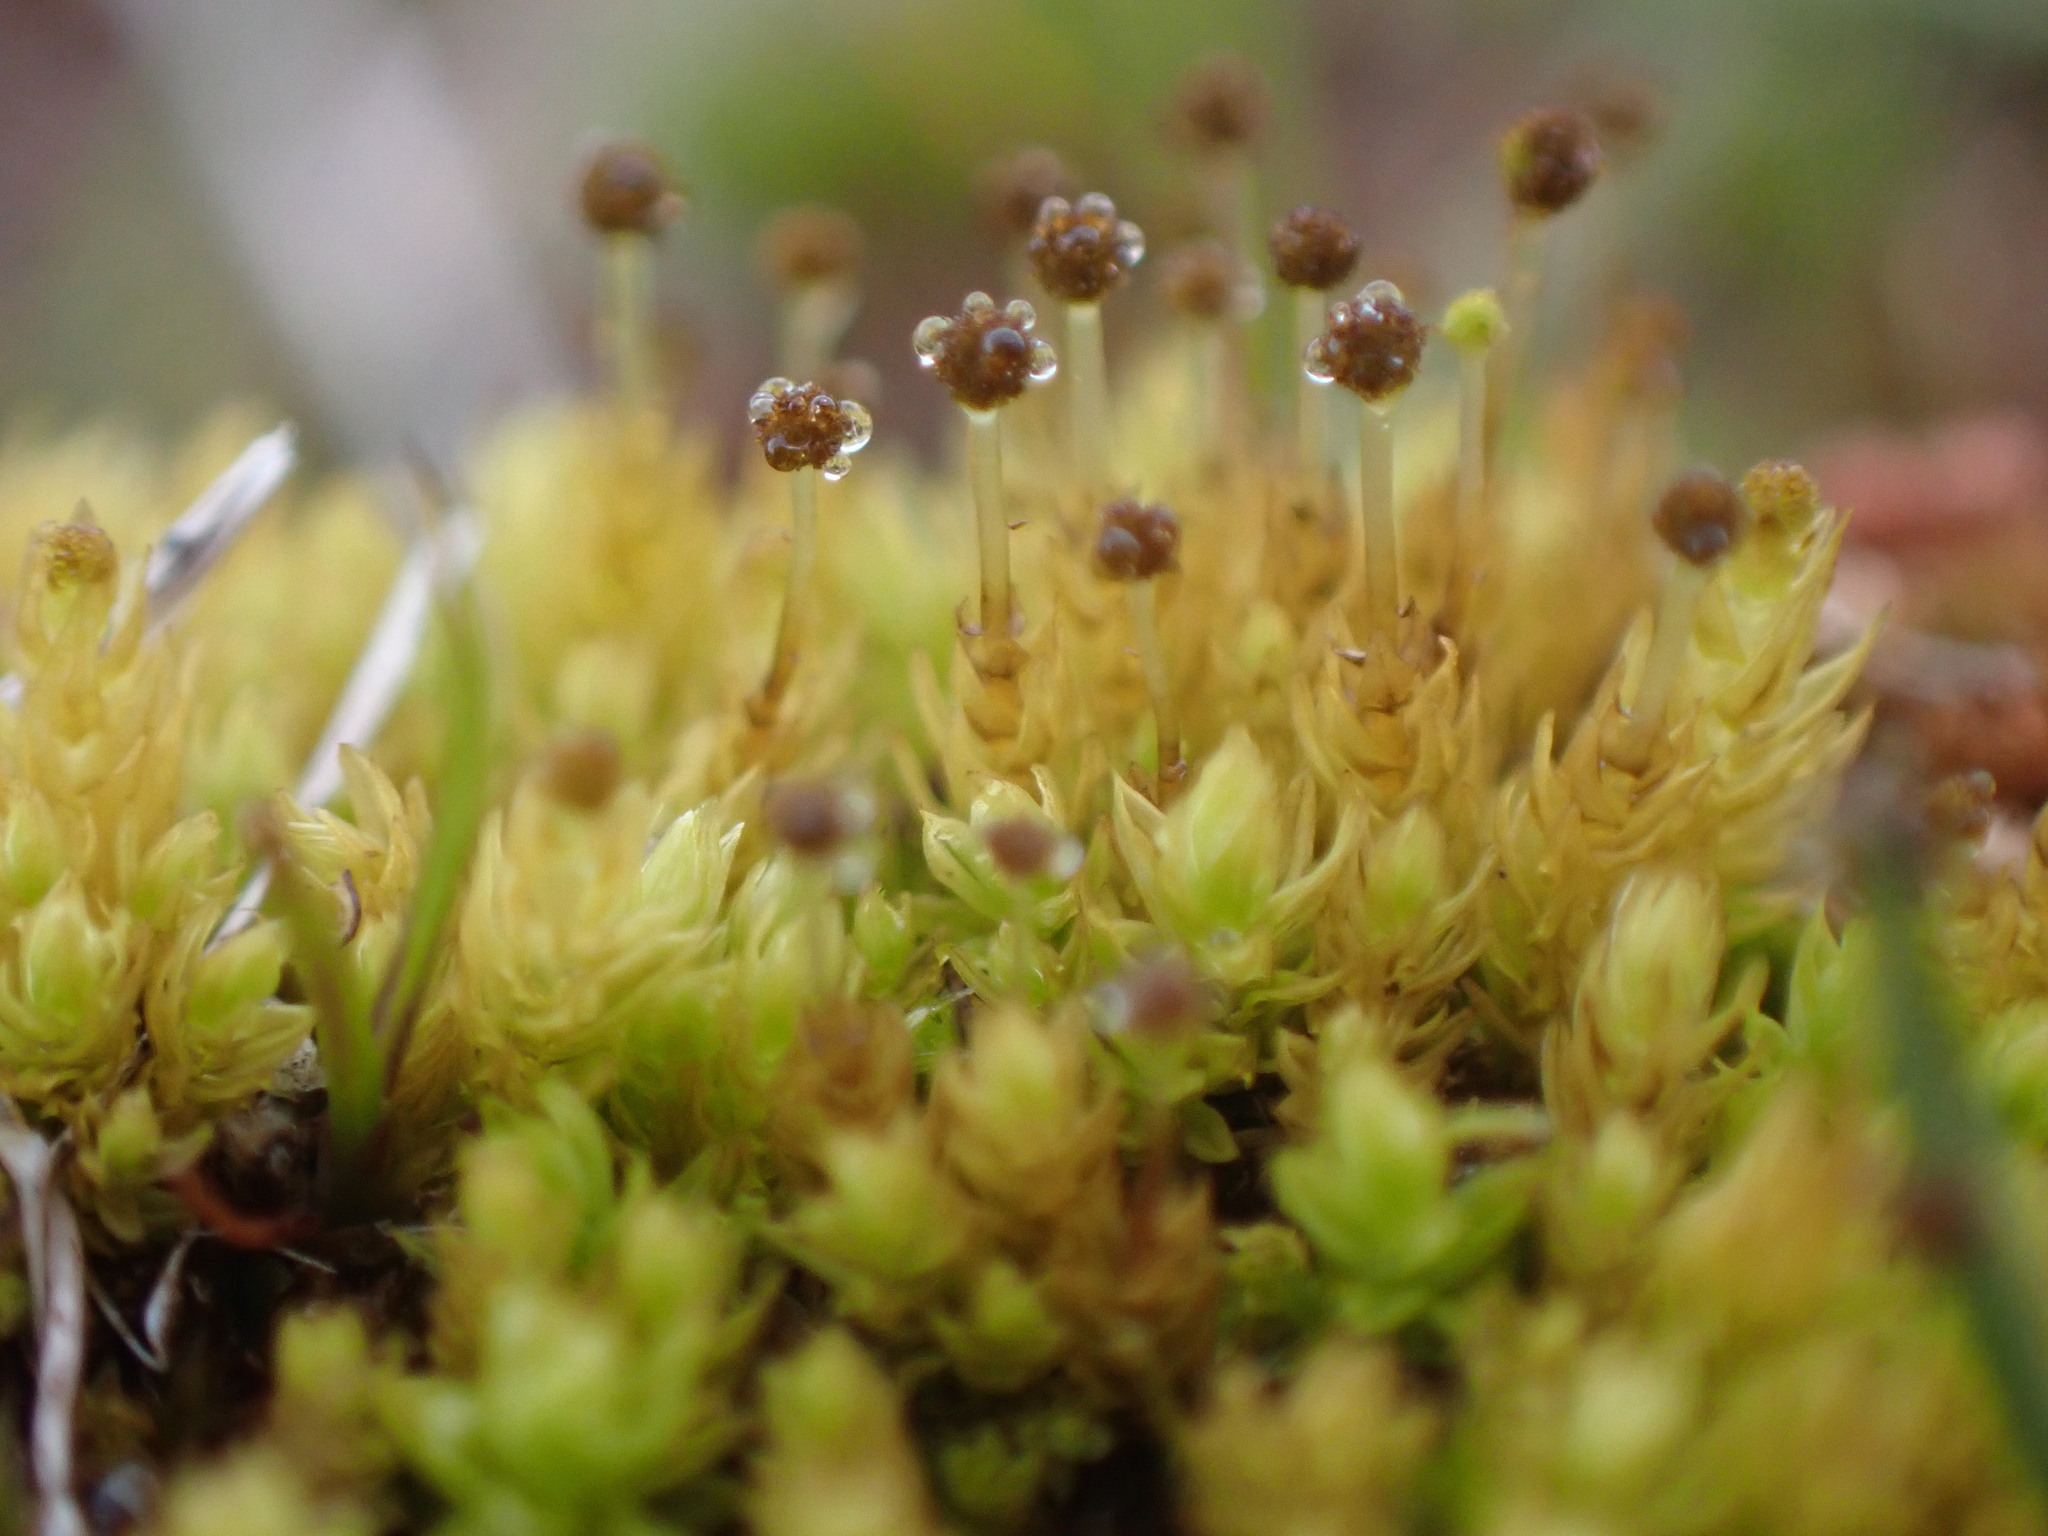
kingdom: Plantae
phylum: Bryophyta
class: Bryopsida
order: Aulacomniales
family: Aulacomniaceae
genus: Aulacomnium
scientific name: Aulacomnium androgynum
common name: Little groove moss
